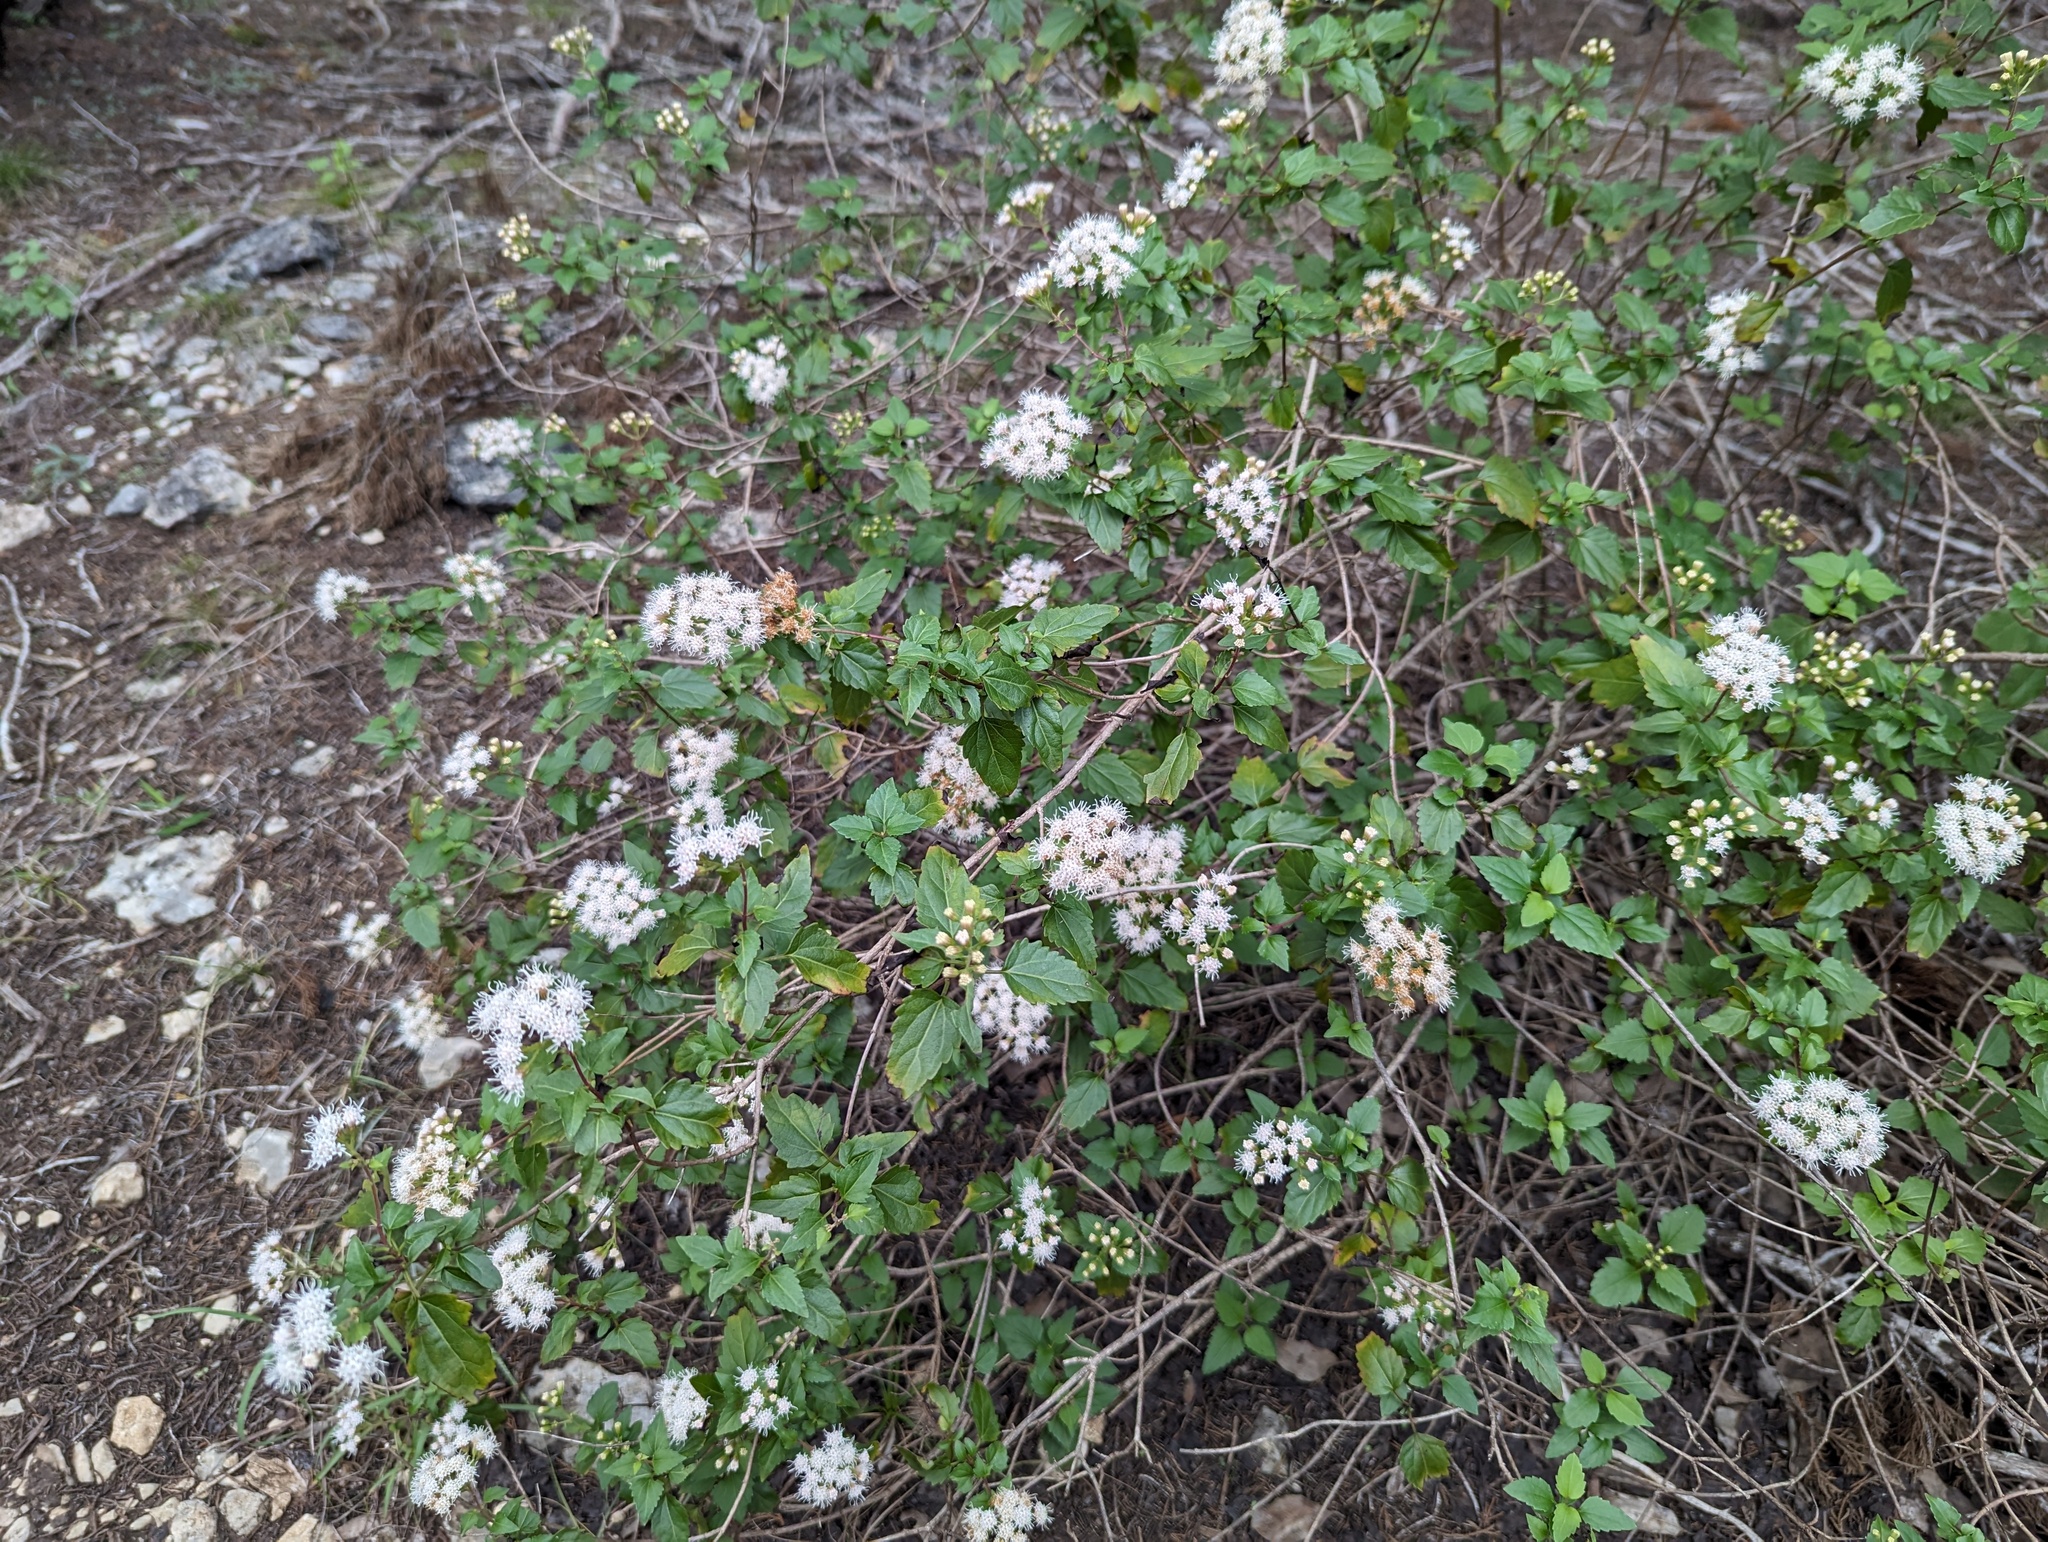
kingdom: Plantae
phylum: Tracheophyta
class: Magnoliopsida
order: Asterales
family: Asteraceae
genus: Ageratina
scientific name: Ageratina havanensis
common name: Havana snakeroot
